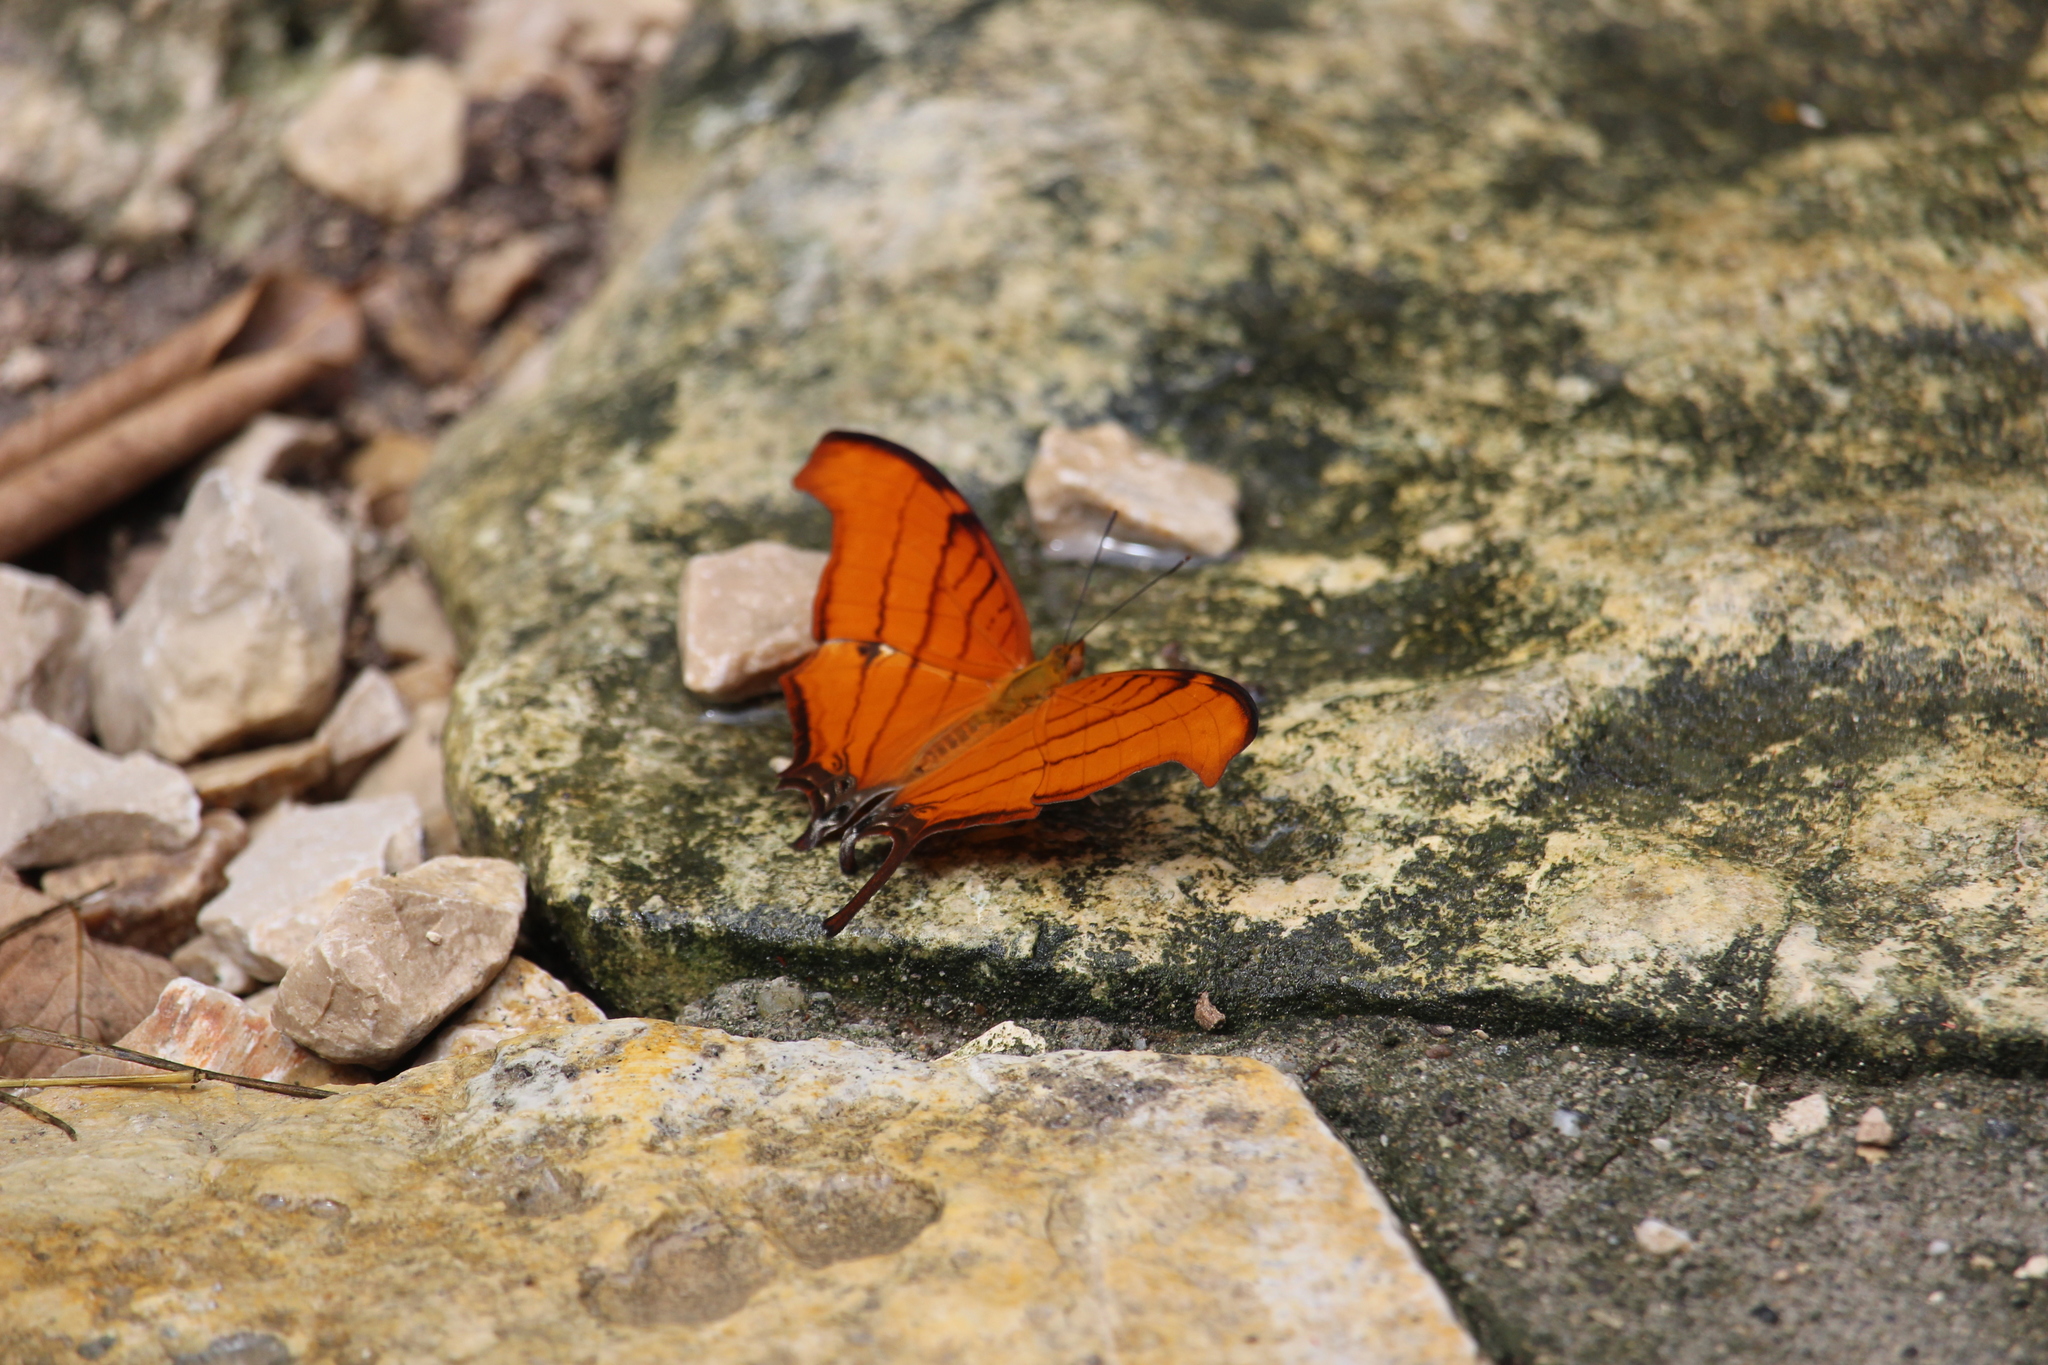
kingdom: Animalia
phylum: Arthropoda
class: Insecta
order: Lepidoptera
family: Nymphalidae
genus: Marpesia
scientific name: Marpesia petreus
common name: Red dagger wing
